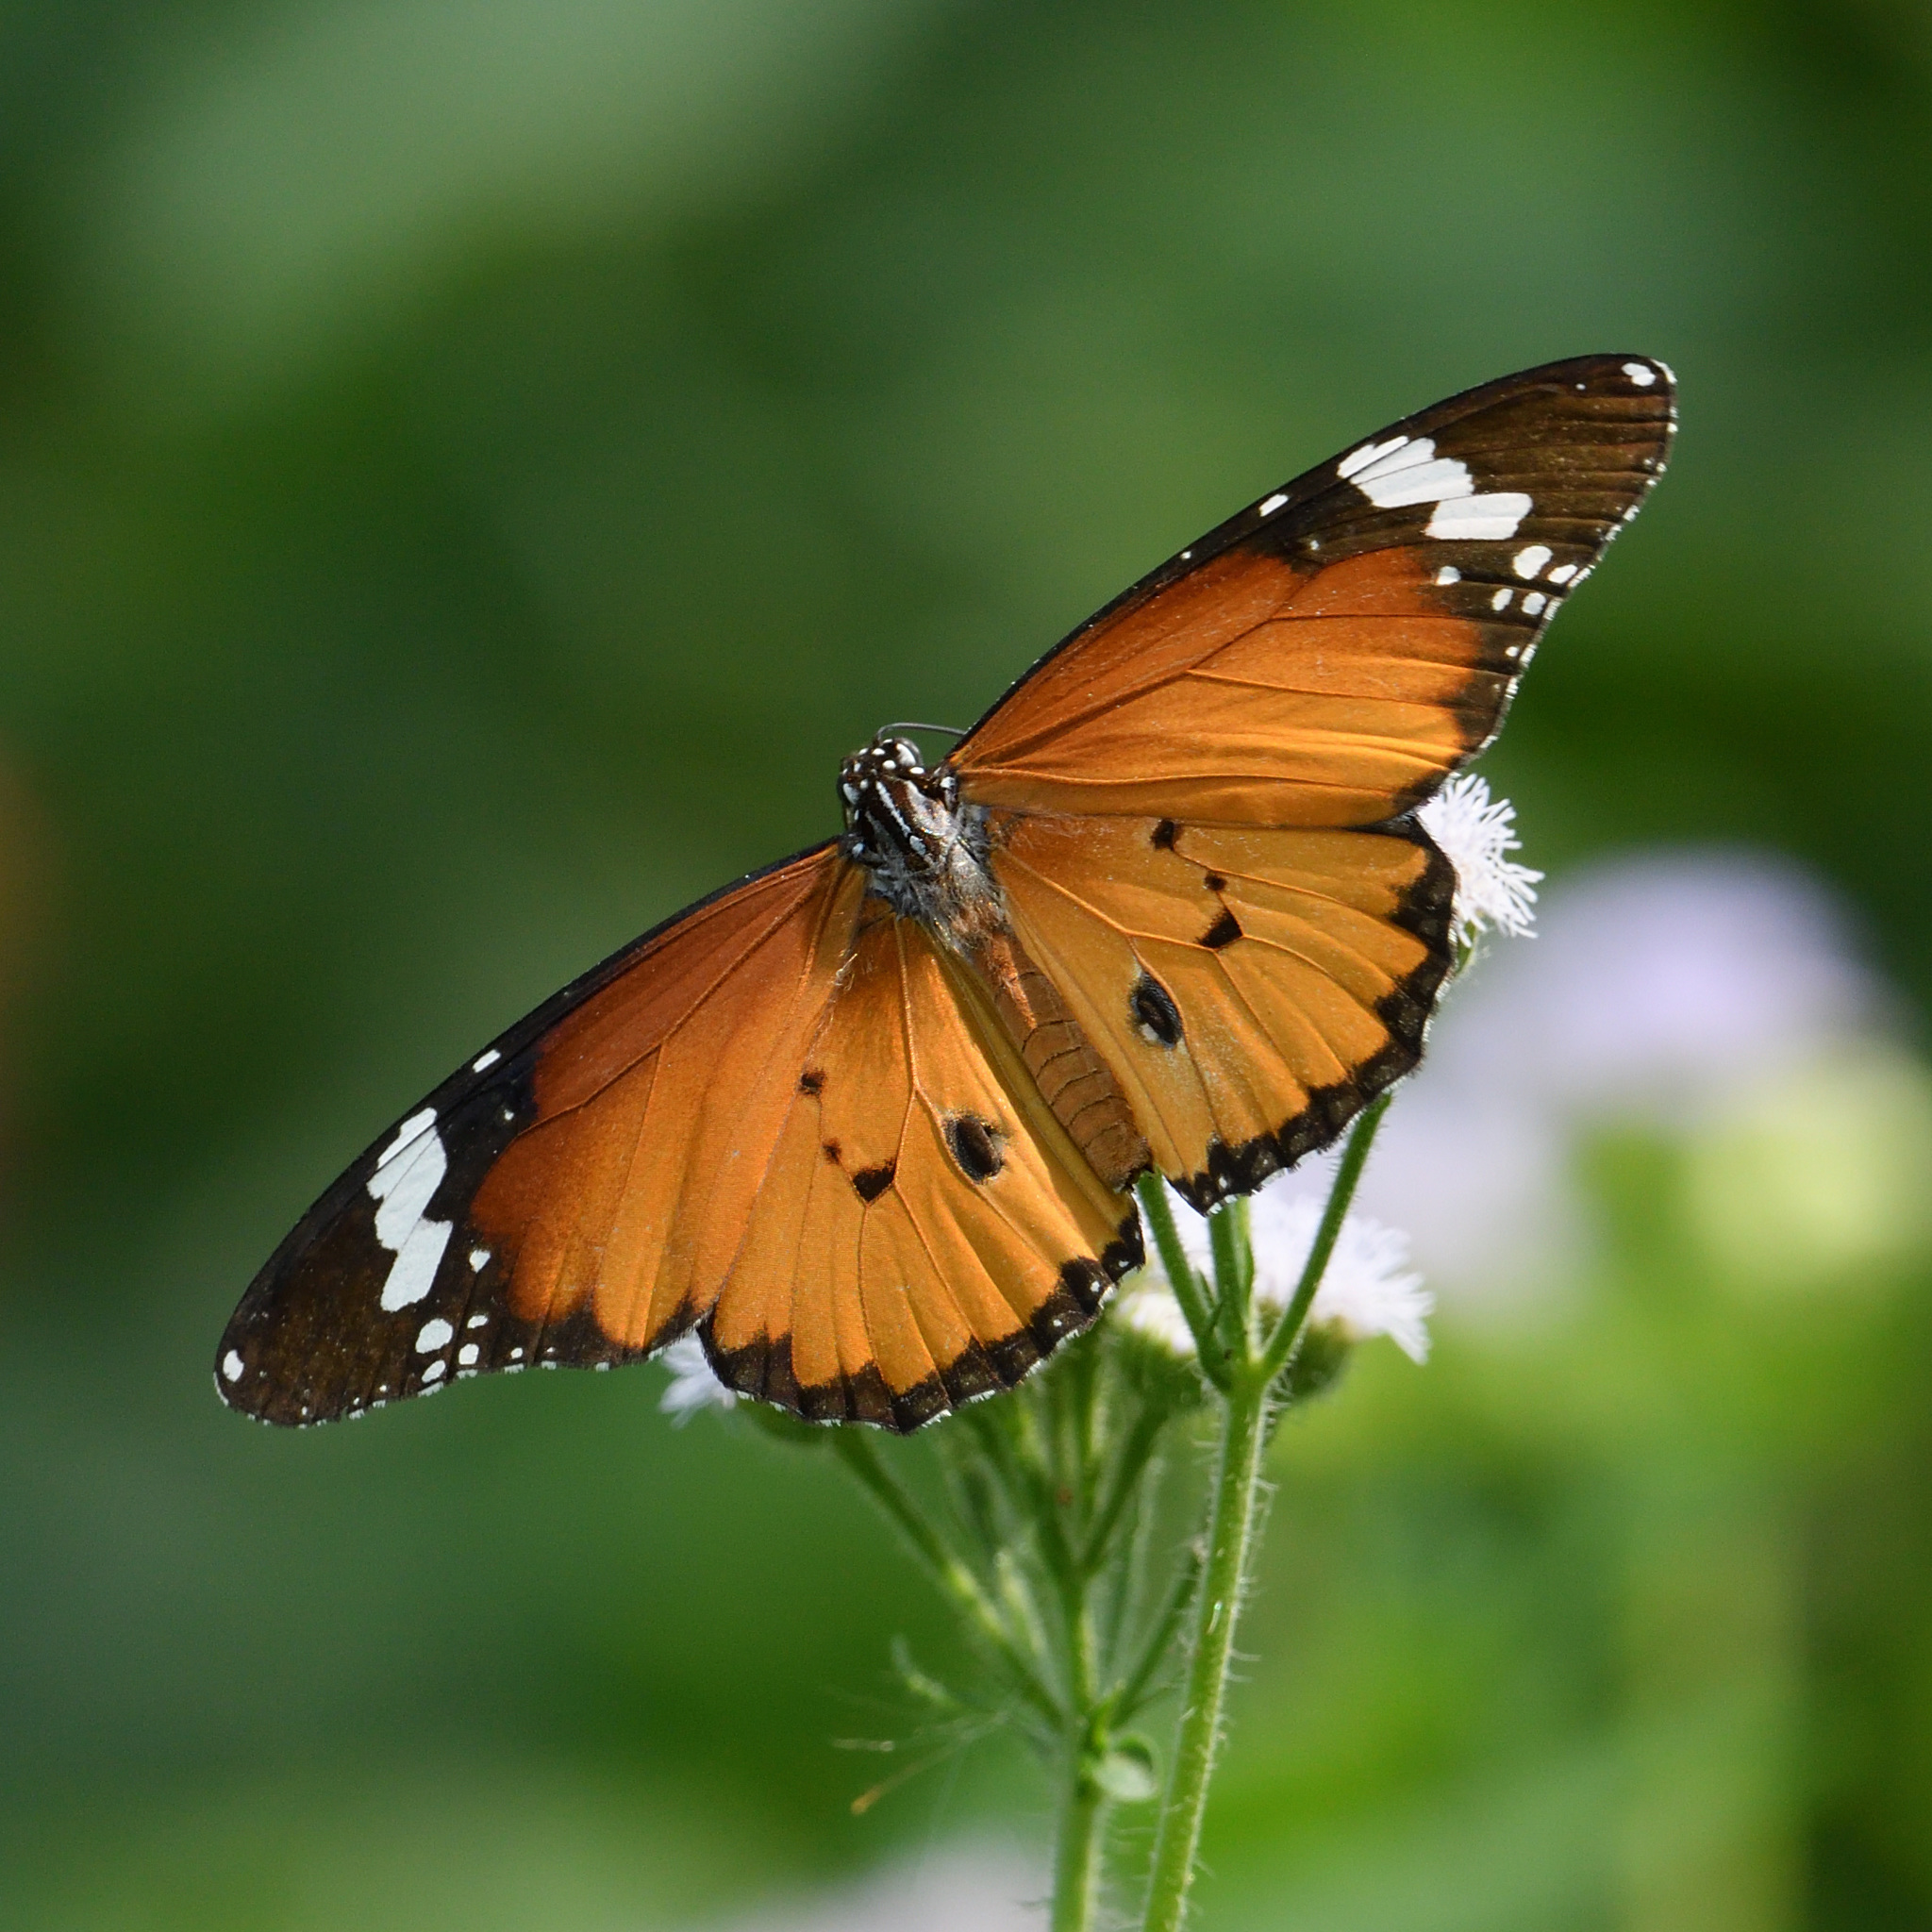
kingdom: Animalia
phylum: Arthropoda
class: Insecta
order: Lepidoptera
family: Nymphalidae
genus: Danaus
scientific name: Danaus chrysippus
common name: Plain tiger
